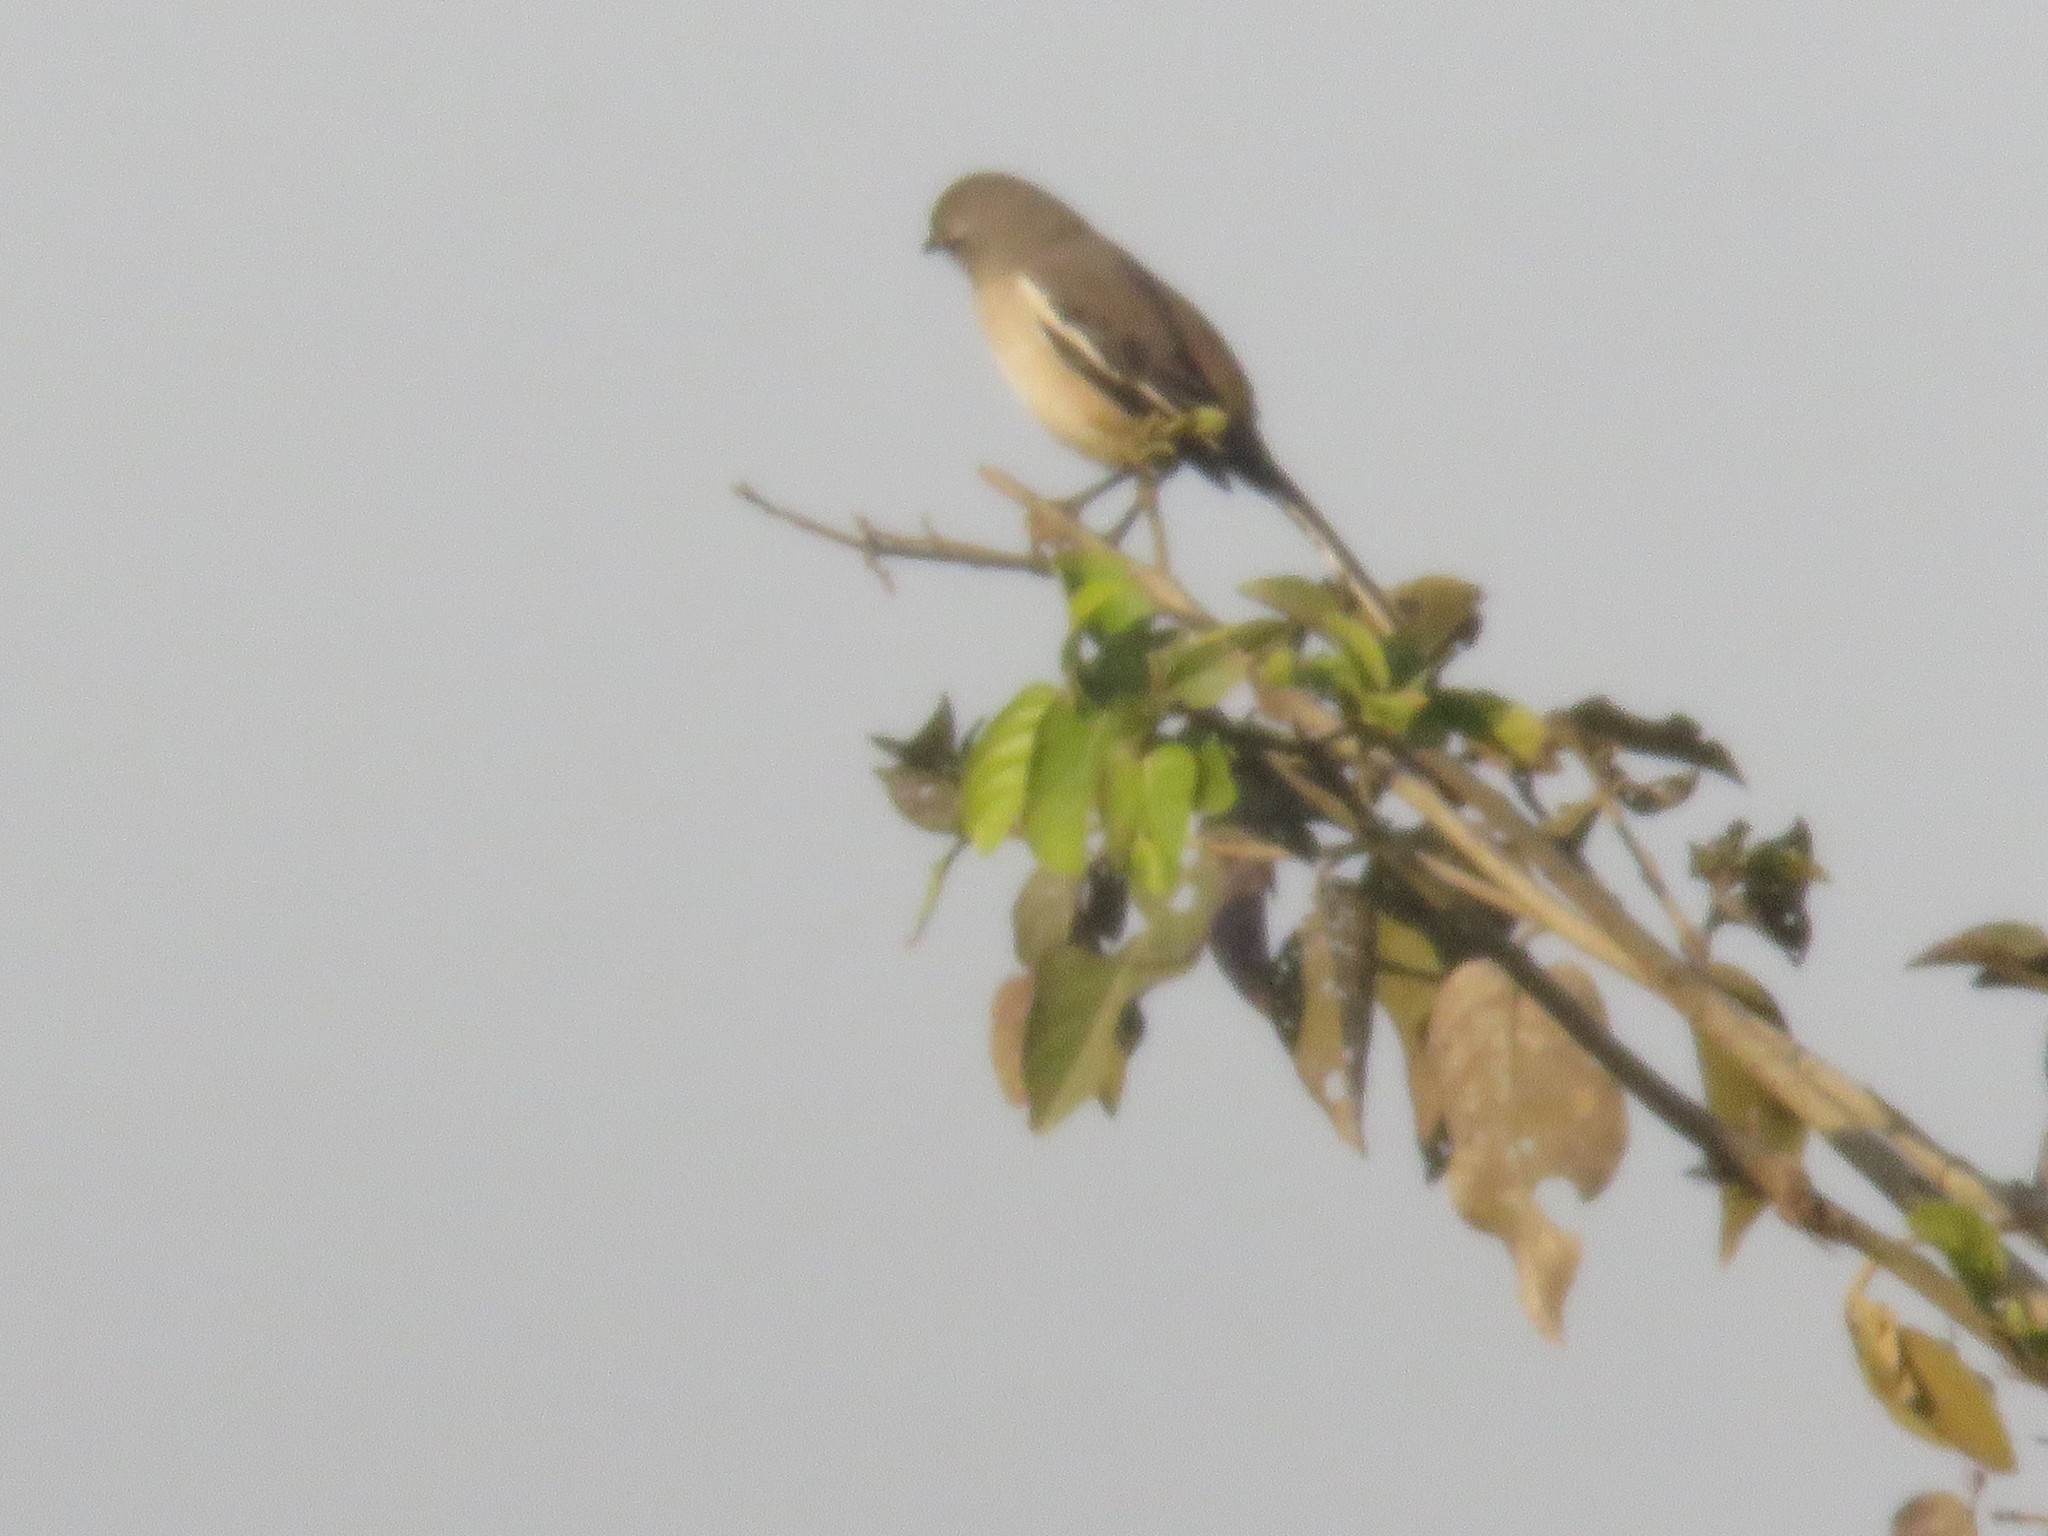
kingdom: Animalia
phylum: Chordata
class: Aves
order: Passeriformes
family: Mimidae
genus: Mimus
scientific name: Mimus triurus
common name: White-banded mockingbird
